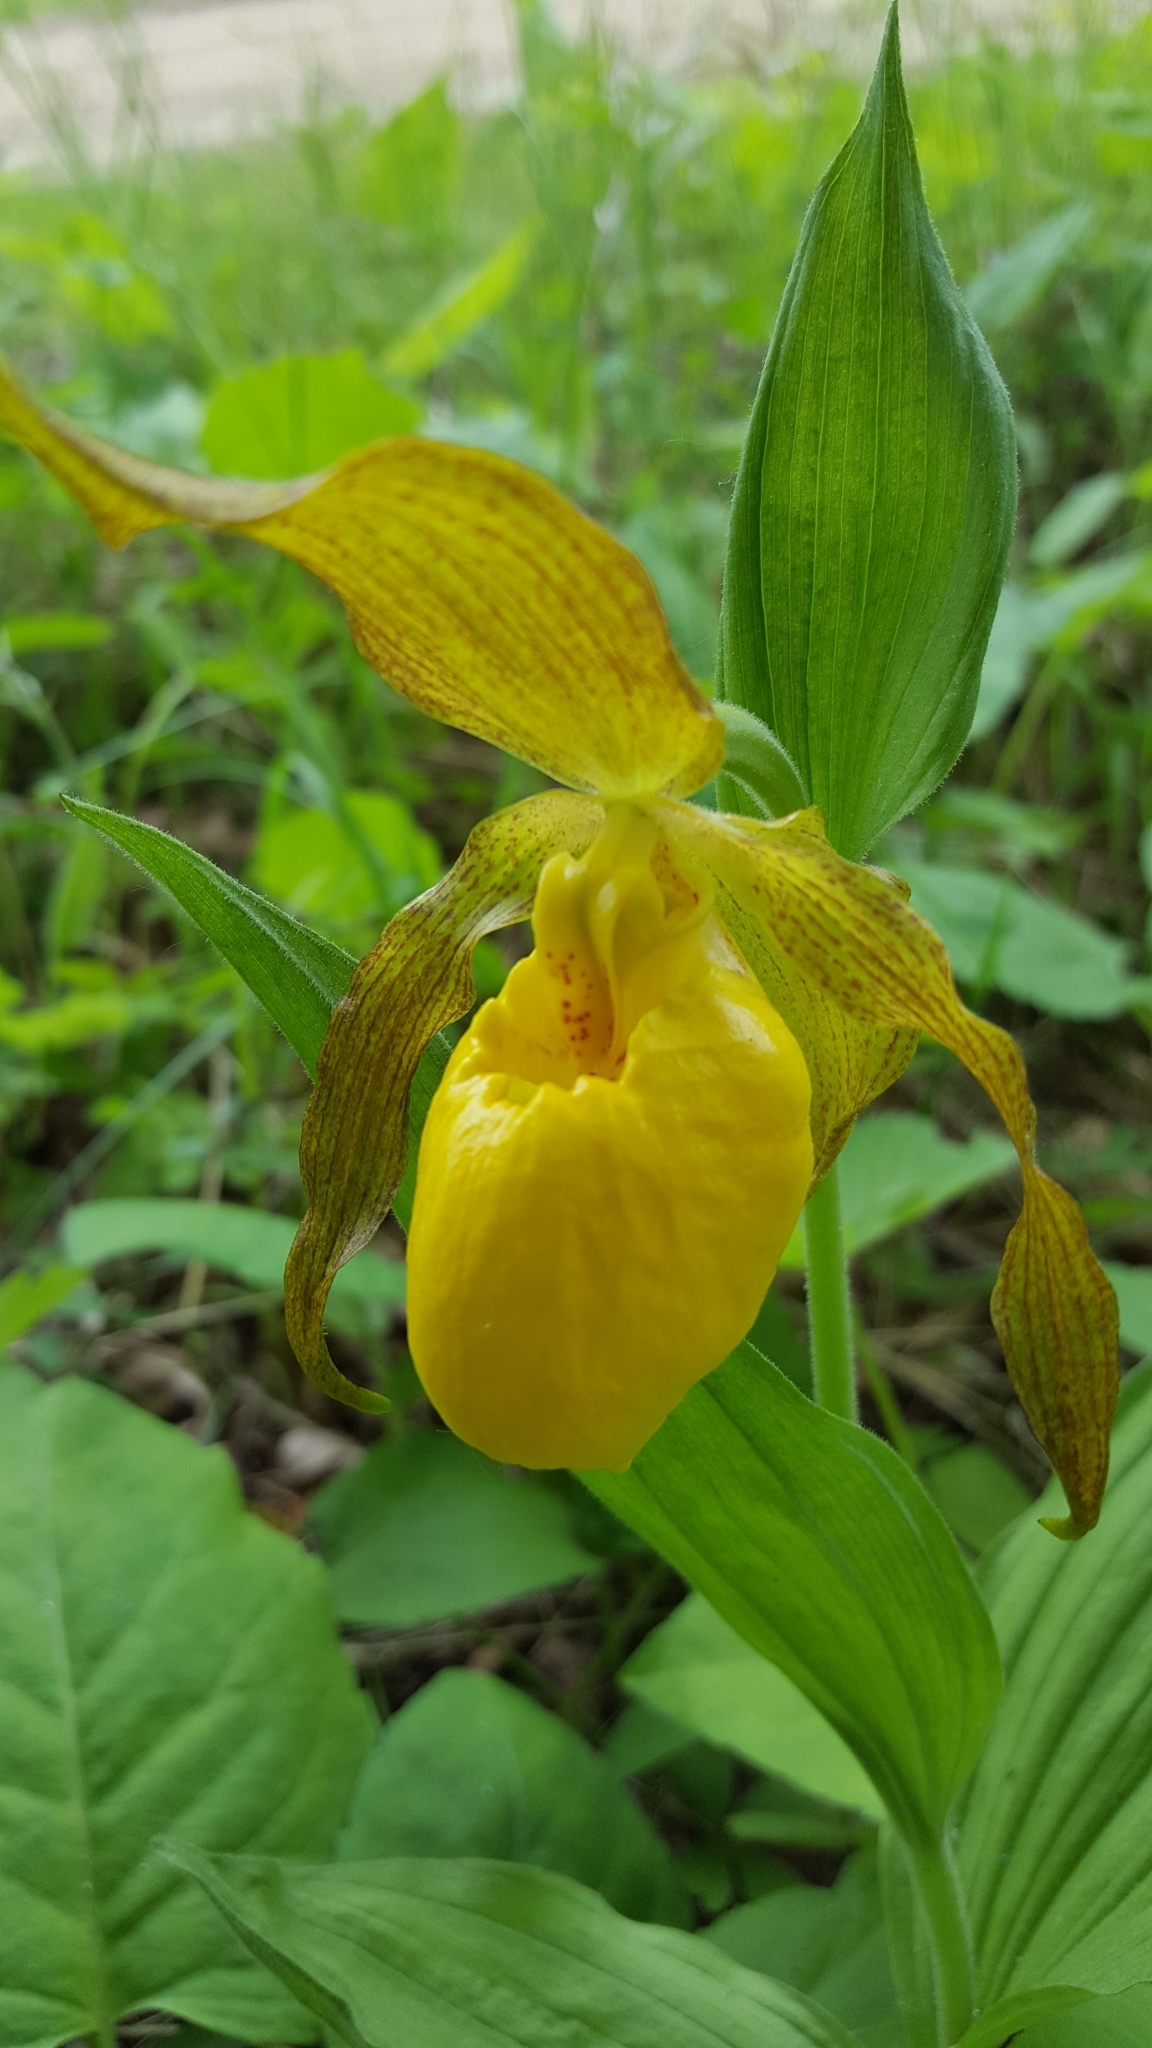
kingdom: Plantae
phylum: Tracheophyta
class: Liliopsida
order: Asparagales
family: Orchidaceae
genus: Cypripedium
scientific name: Cypripedium parviflorum
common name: American yellow lady's-slipper
